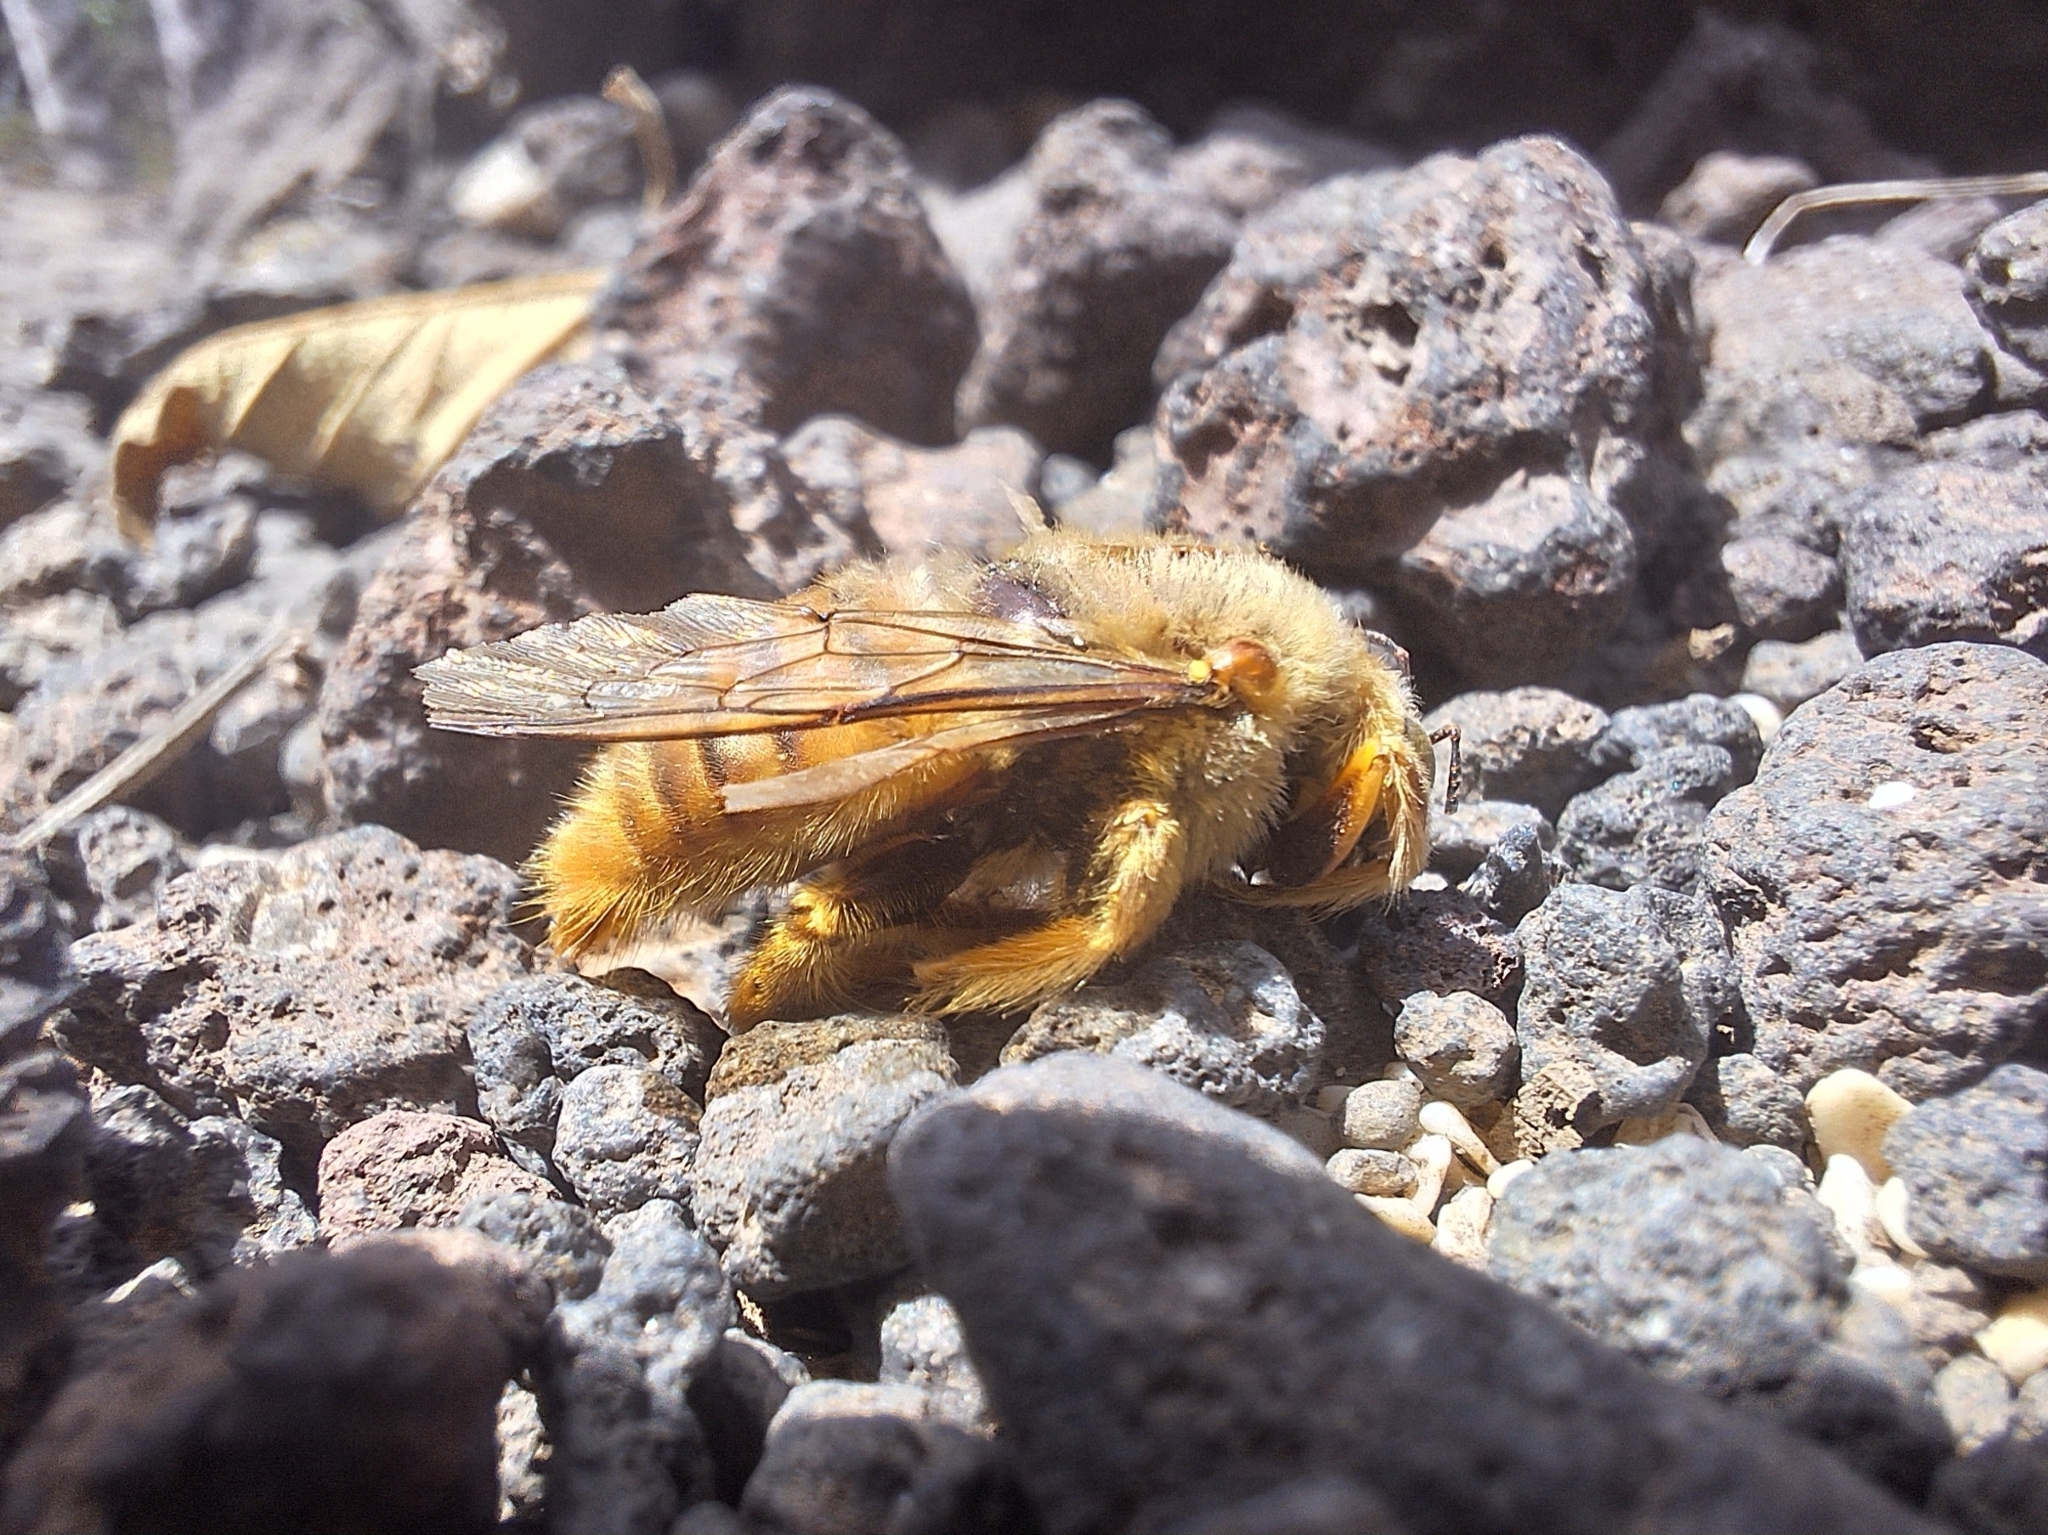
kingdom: Animalia
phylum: Arthropoda
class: Insecta
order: Hymenoptera
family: Apidae
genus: Xylocopa
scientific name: Xylocopa darwini
